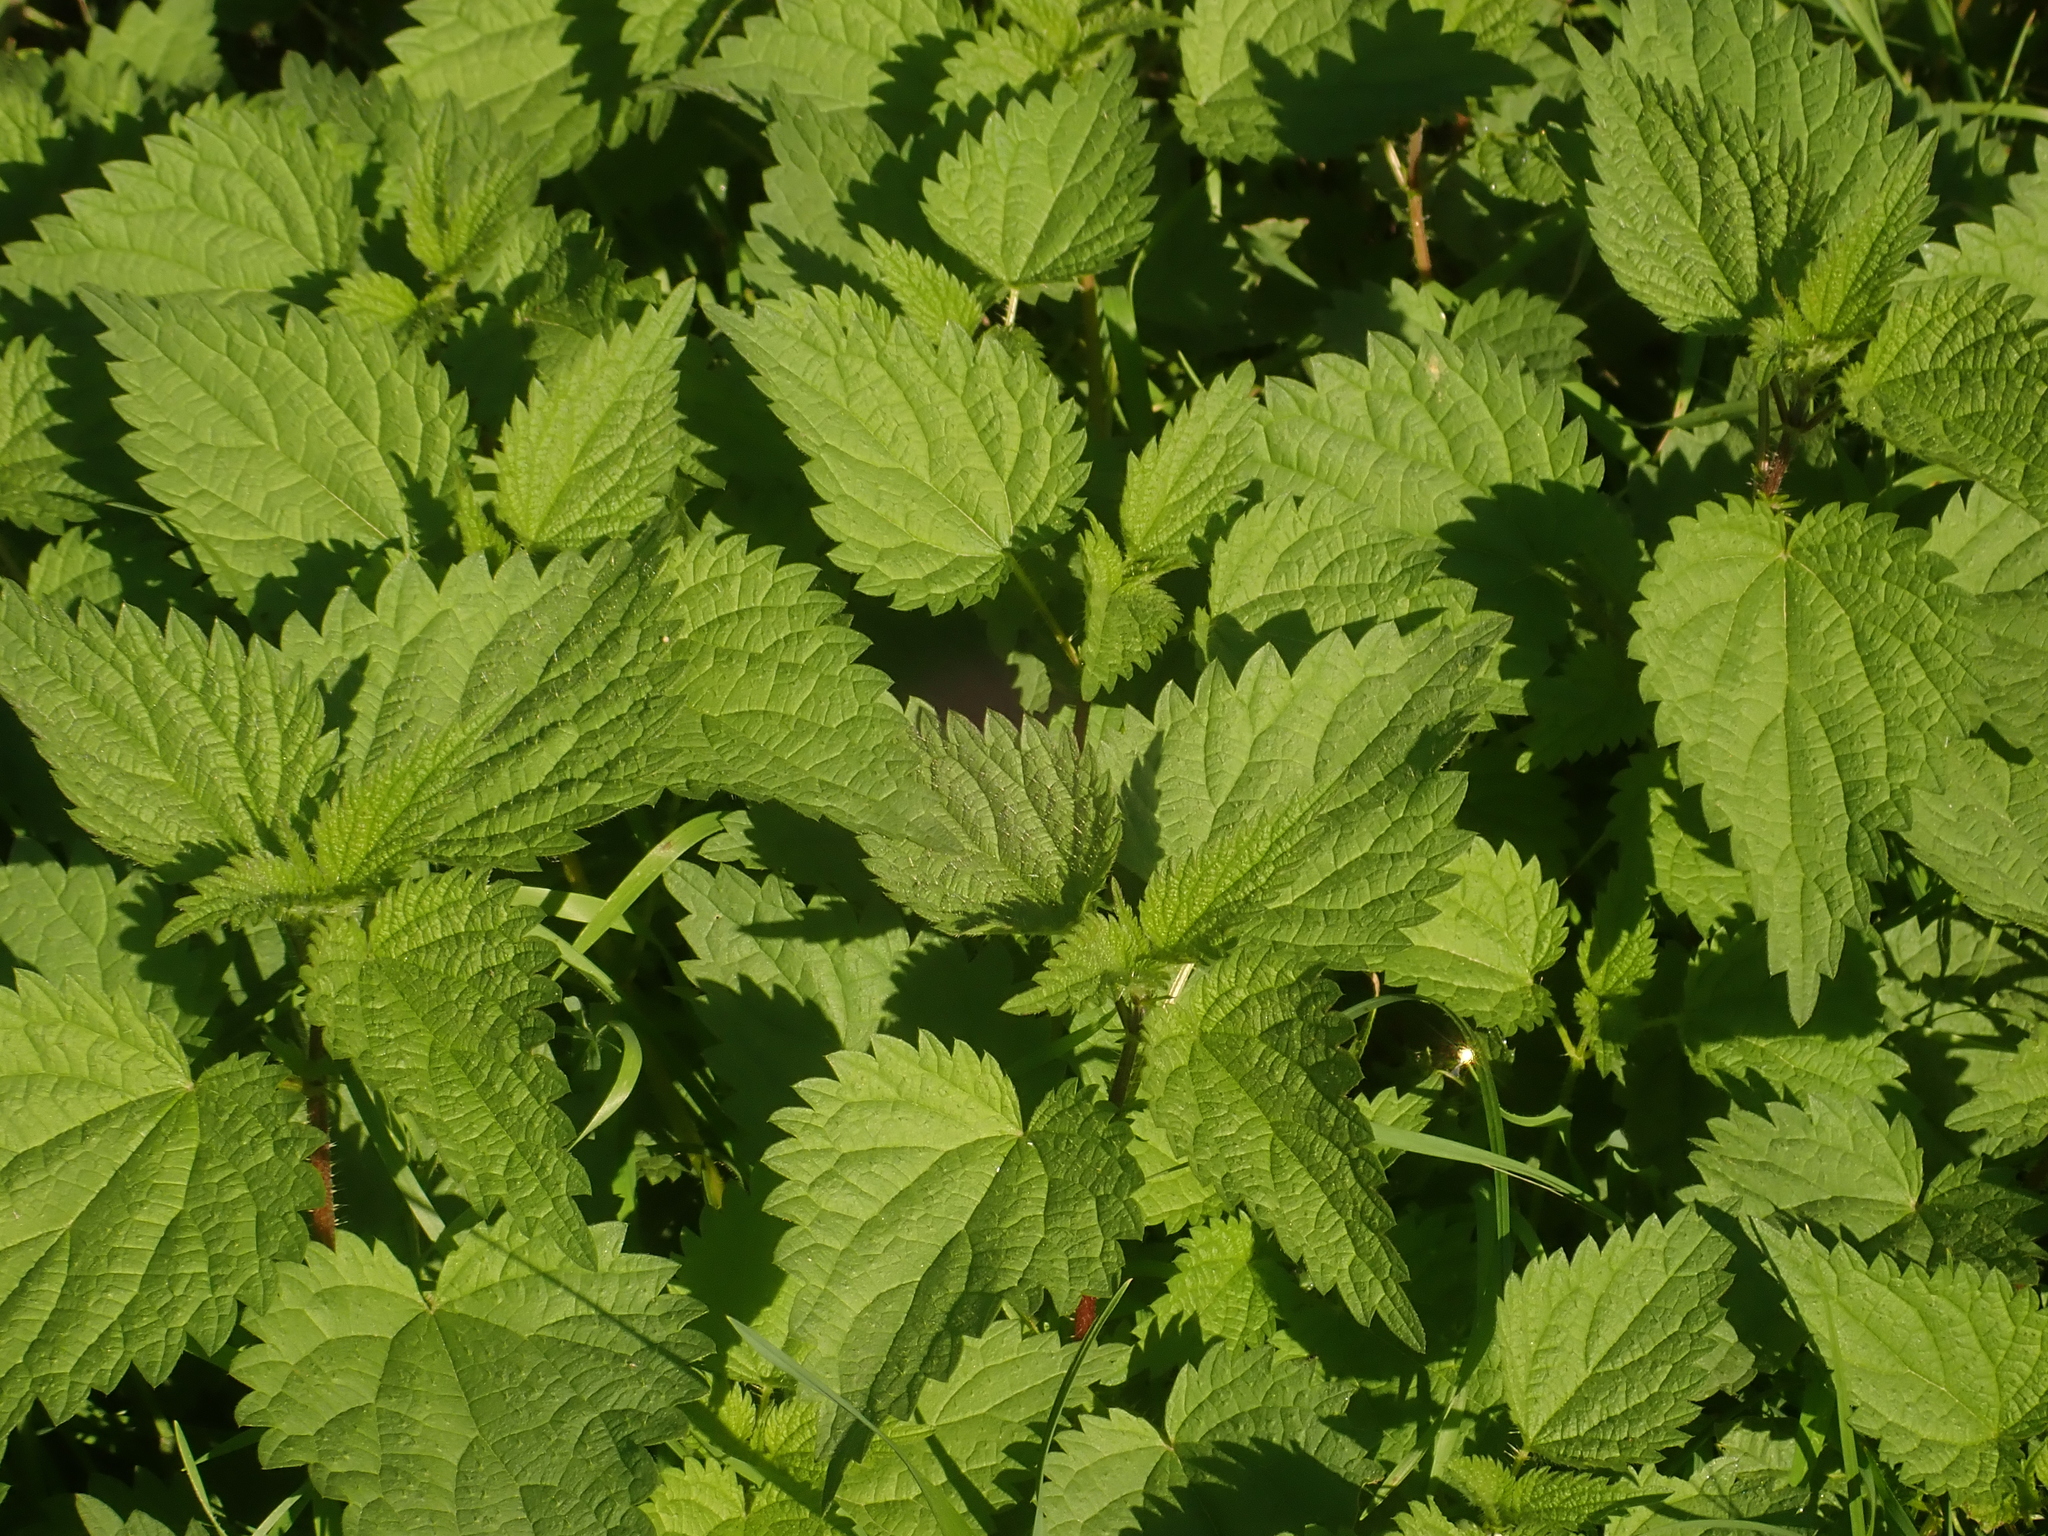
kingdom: Plantae
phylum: Tracheophyta
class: Magnoliopsida
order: Rosales
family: Urticaceae
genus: Urtica
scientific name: Urtica dioica
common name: Common nettle
